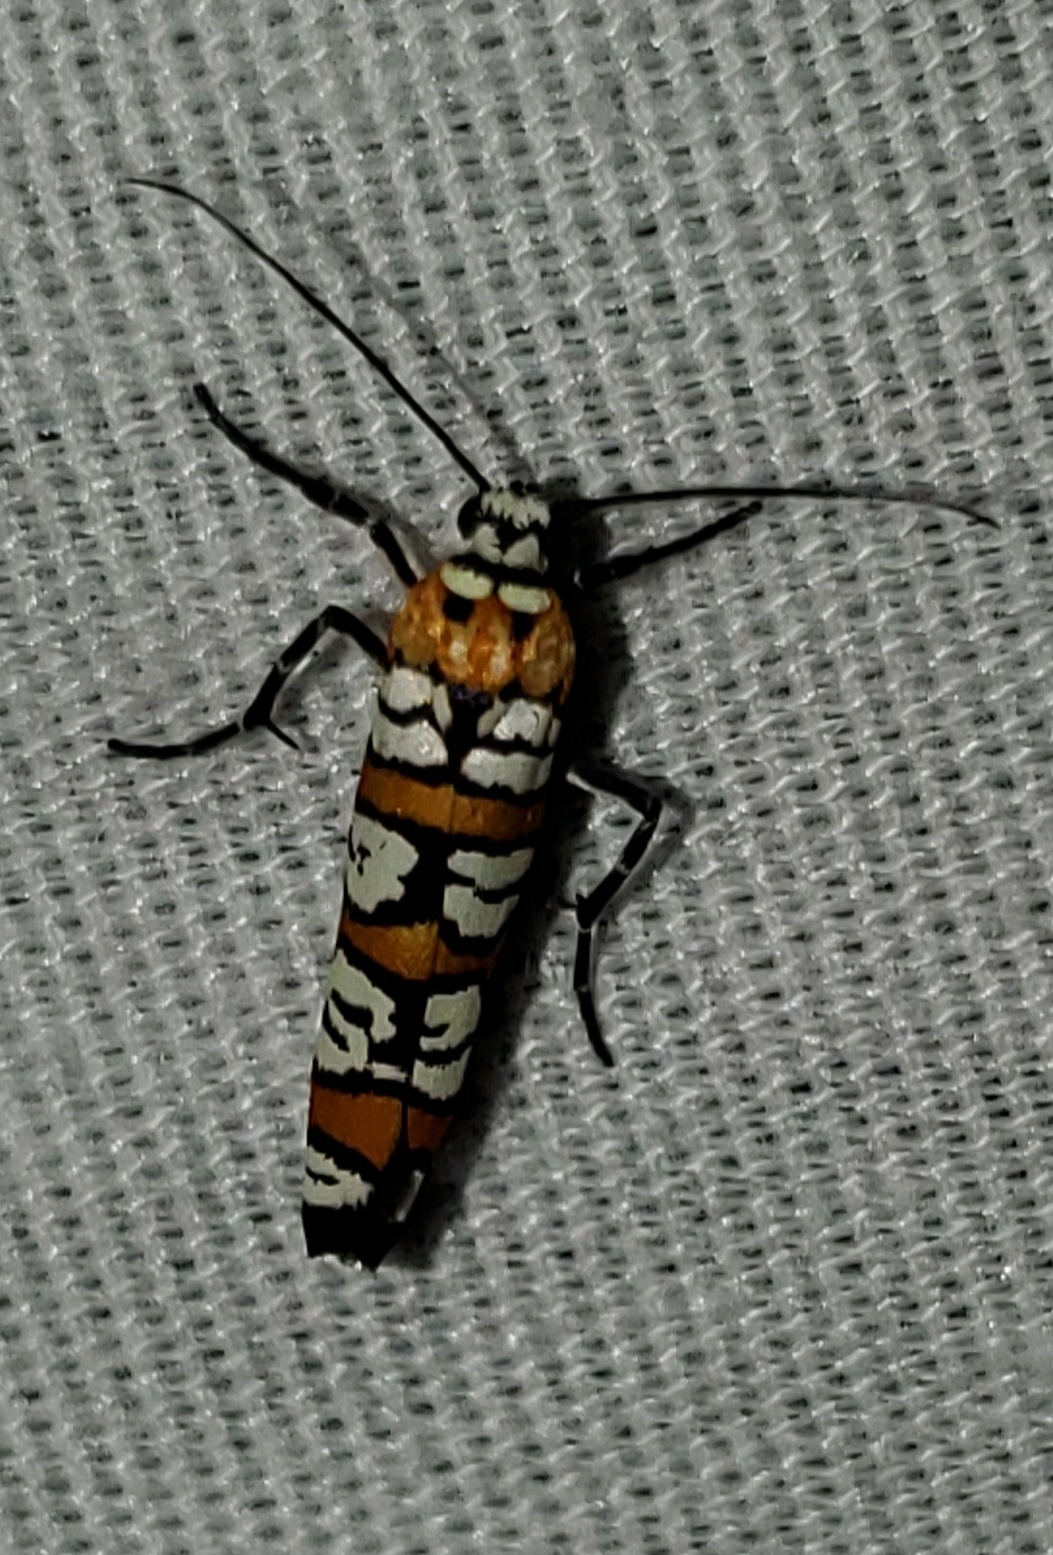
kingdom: Animalia
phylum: Arthropoda
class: Insecta
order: Lepidoptera
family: Attevidae
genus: Atteva
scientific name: Atteva punctella
